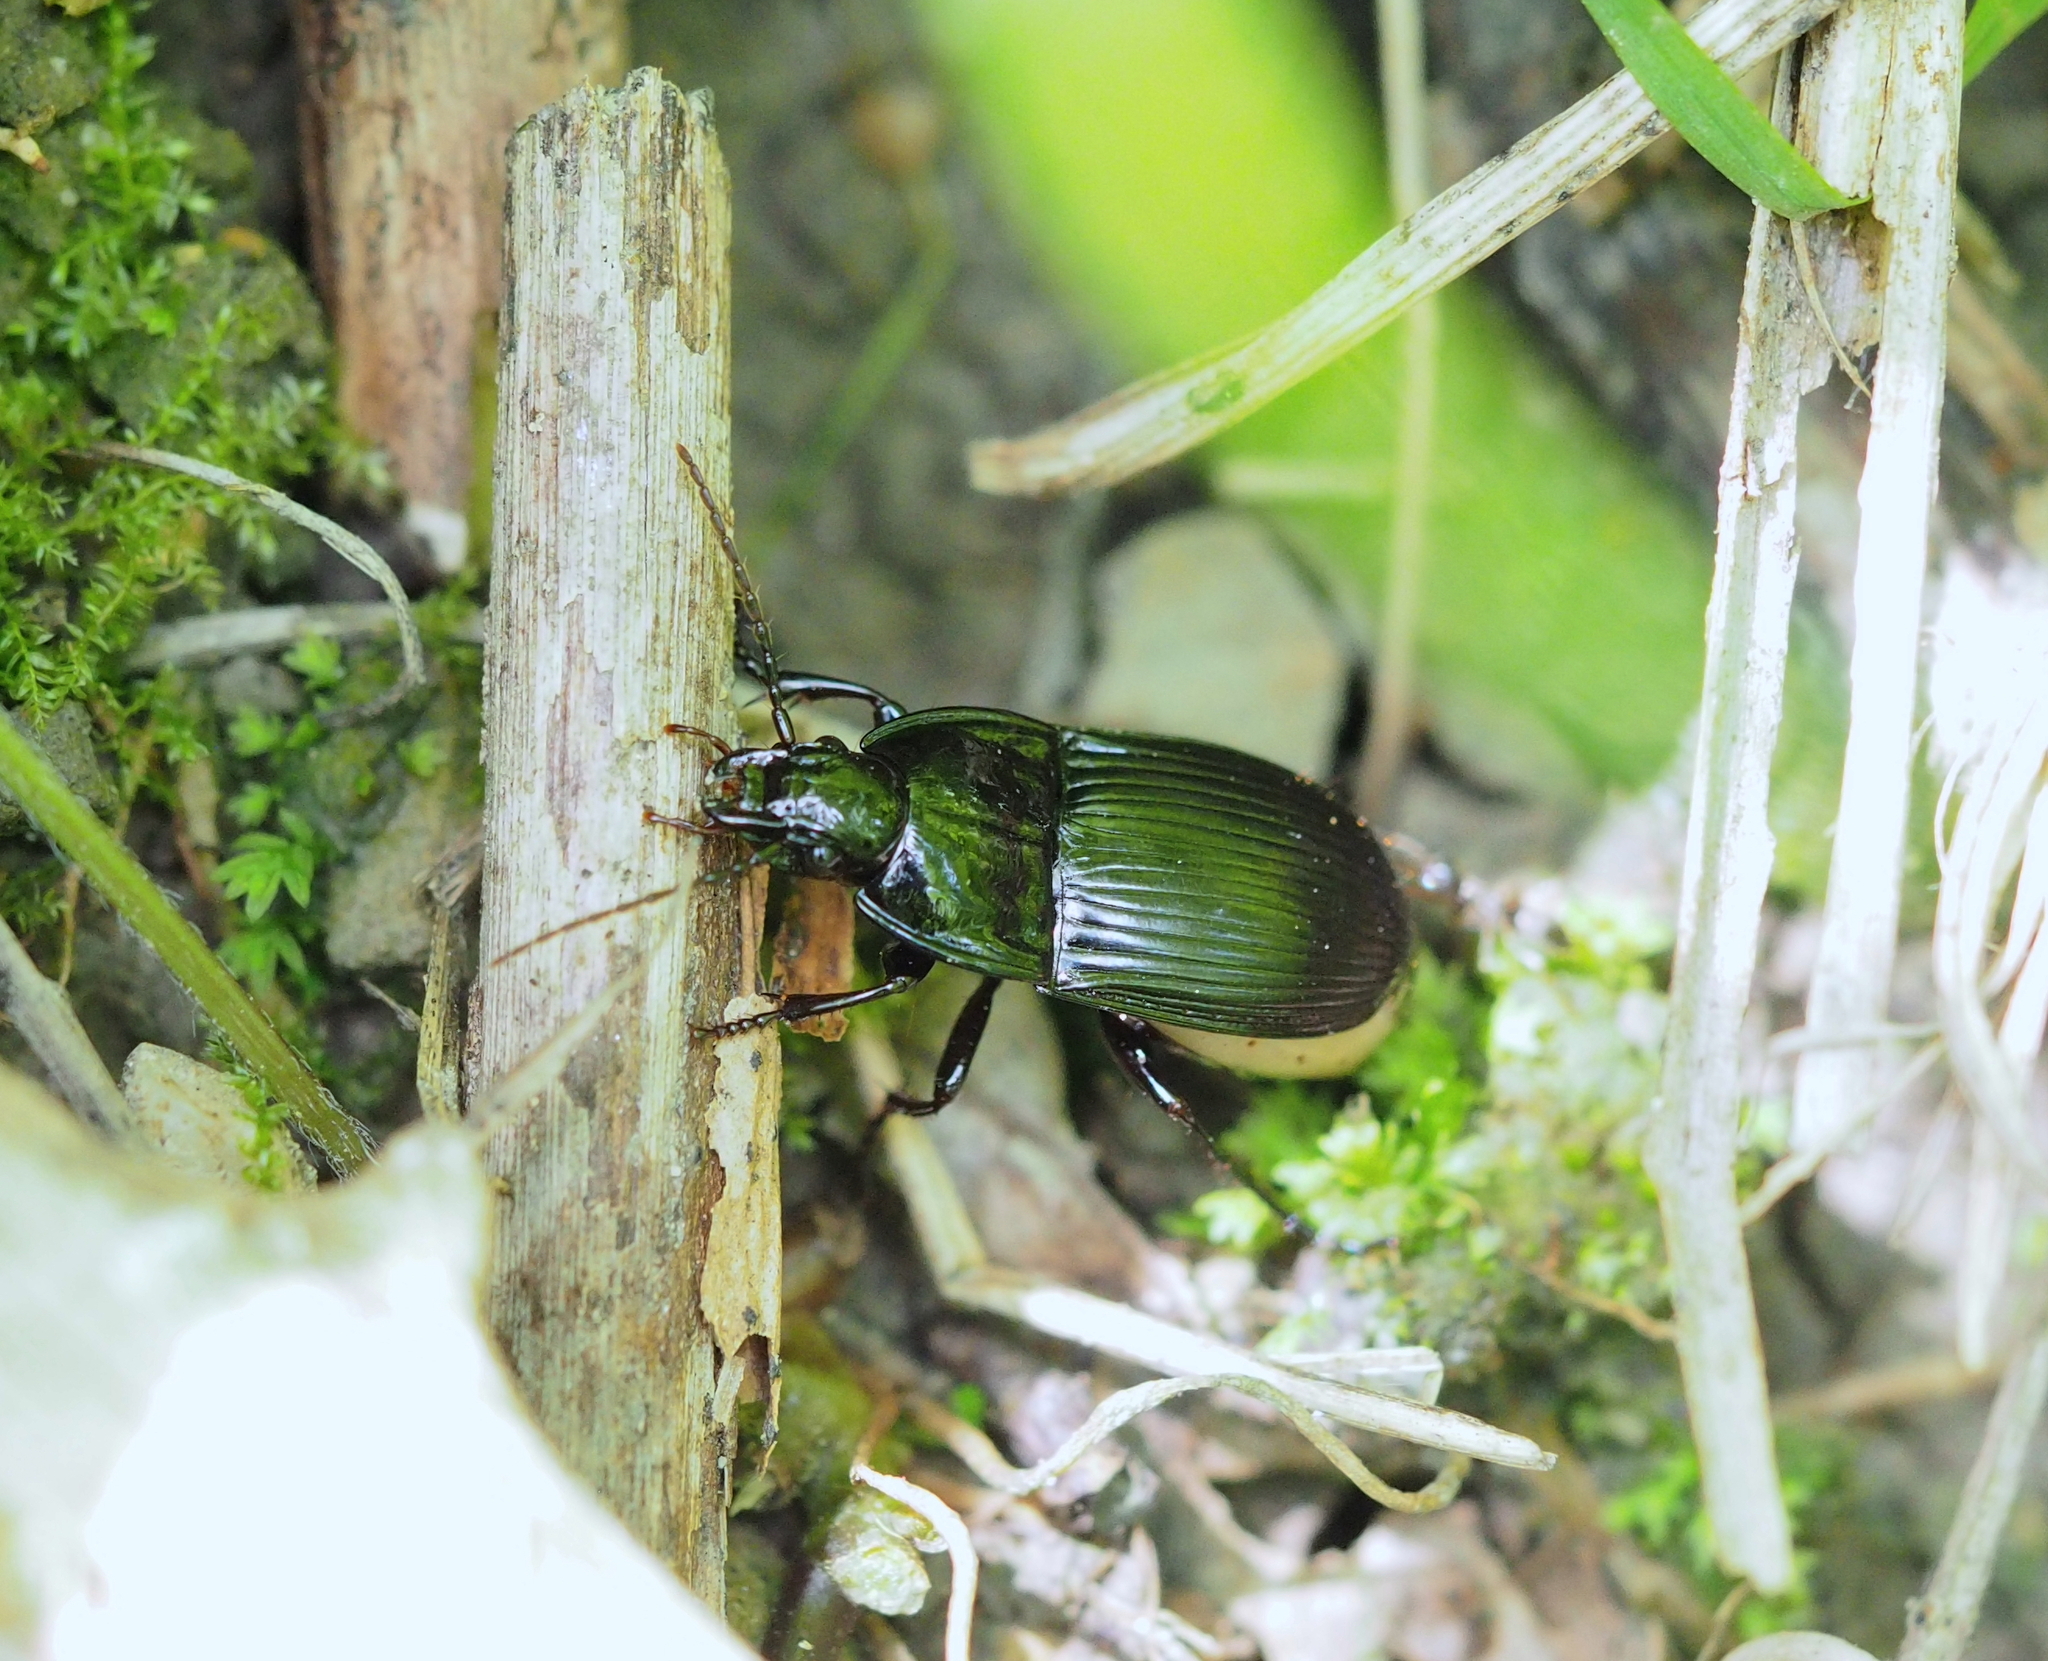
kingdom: Animalia
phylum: Arthropoda
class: Insecta
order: Coleoptera
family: Carabidae
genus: Abax
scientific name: Abax ovalis
